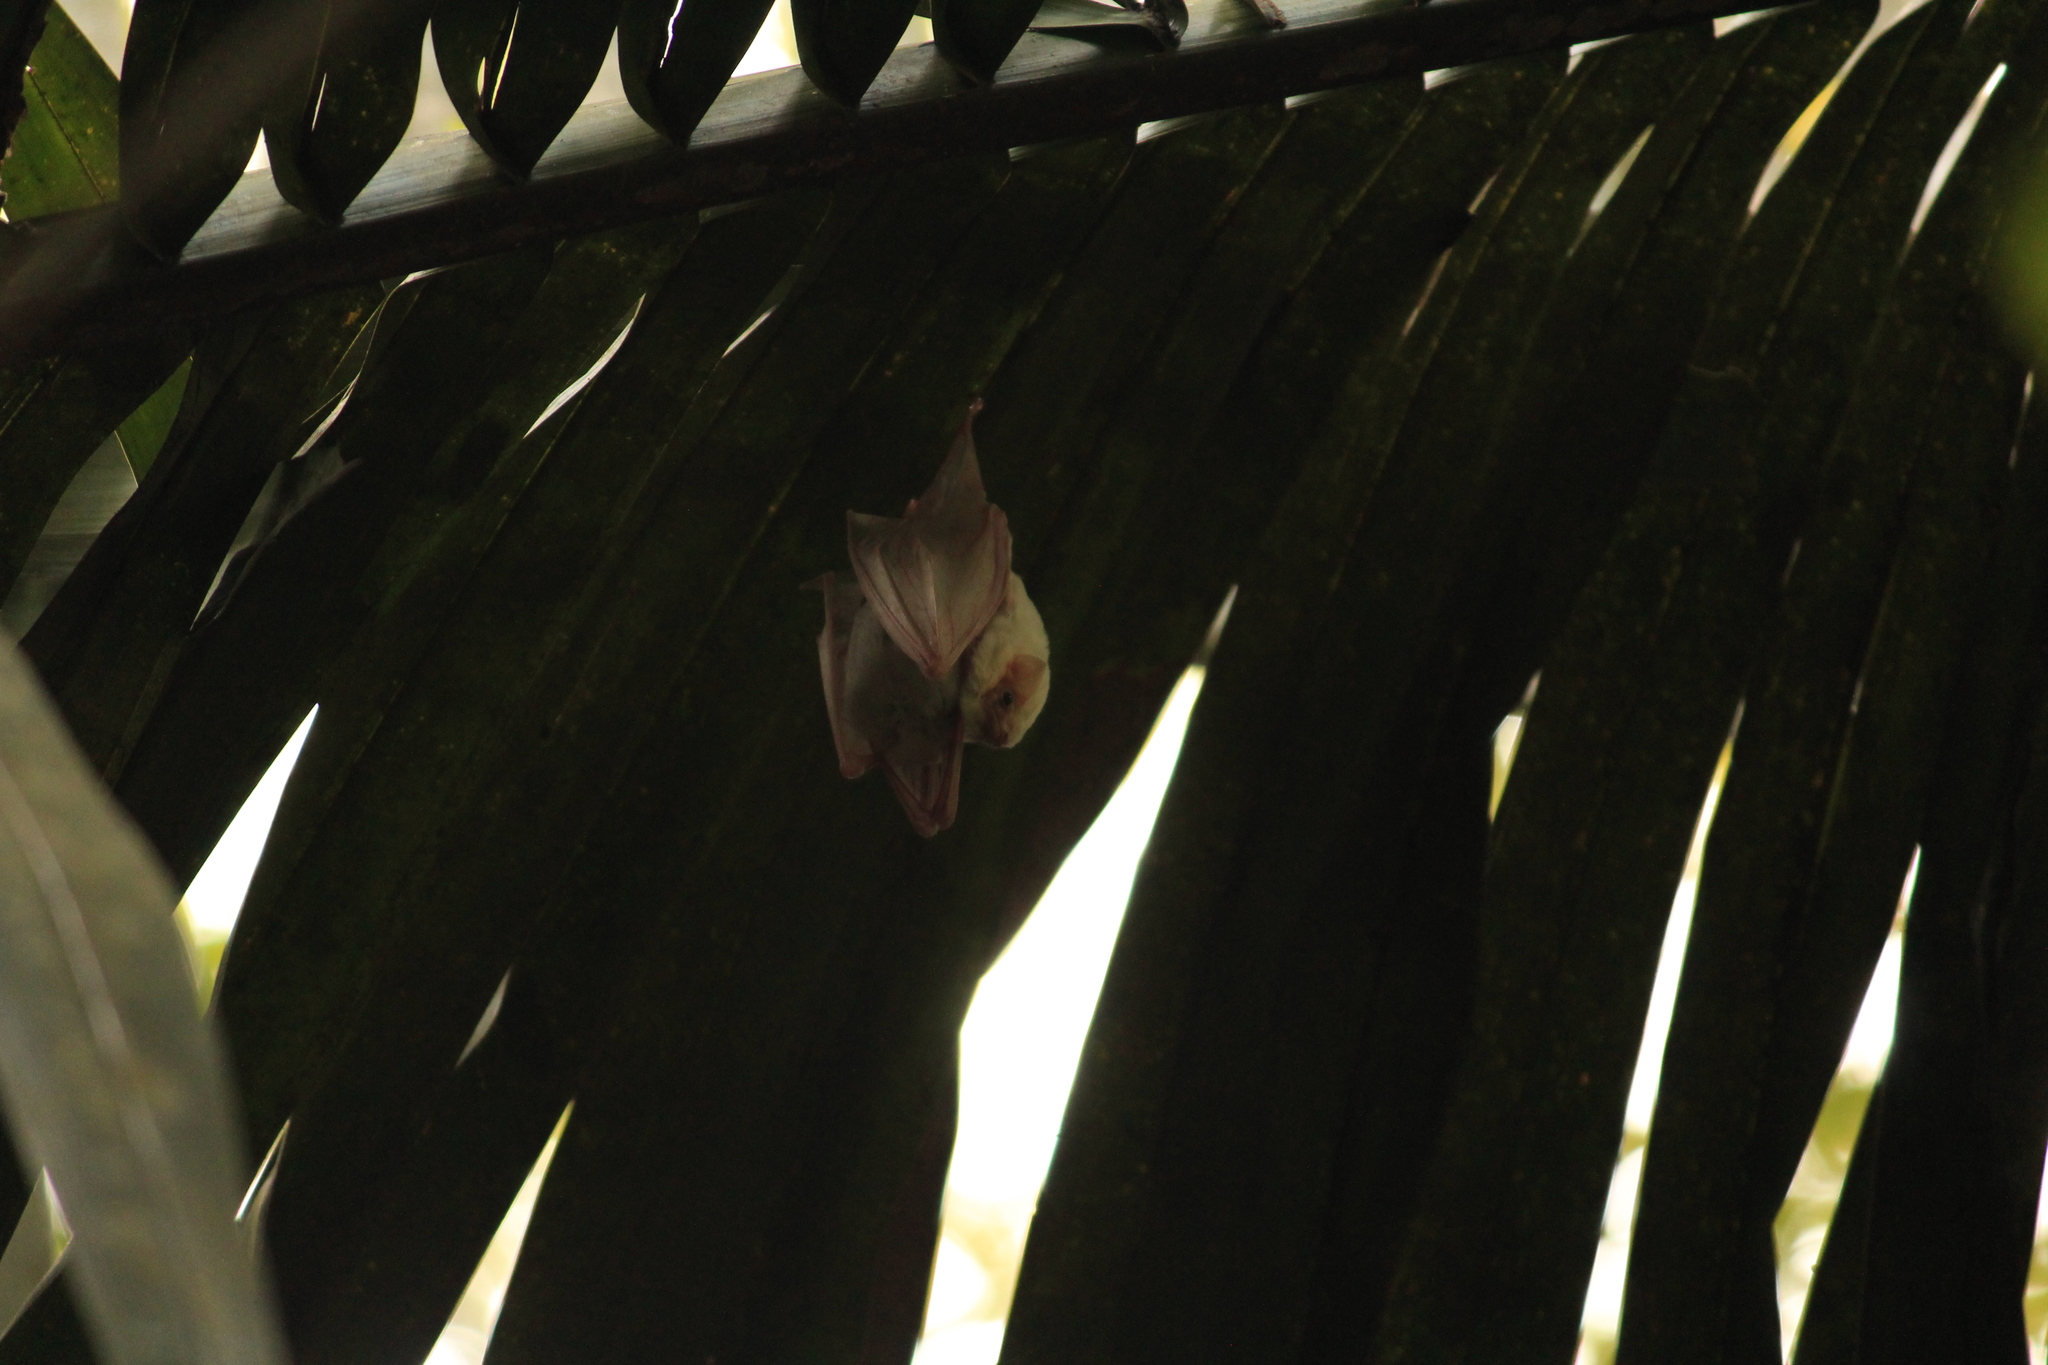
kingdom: Animalia
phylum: Chordata
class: Mammalia
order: Chiroptera
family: Emballonuridae
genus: Diclidurus
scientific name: Diclidurus albus
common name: Northern ghost bat
